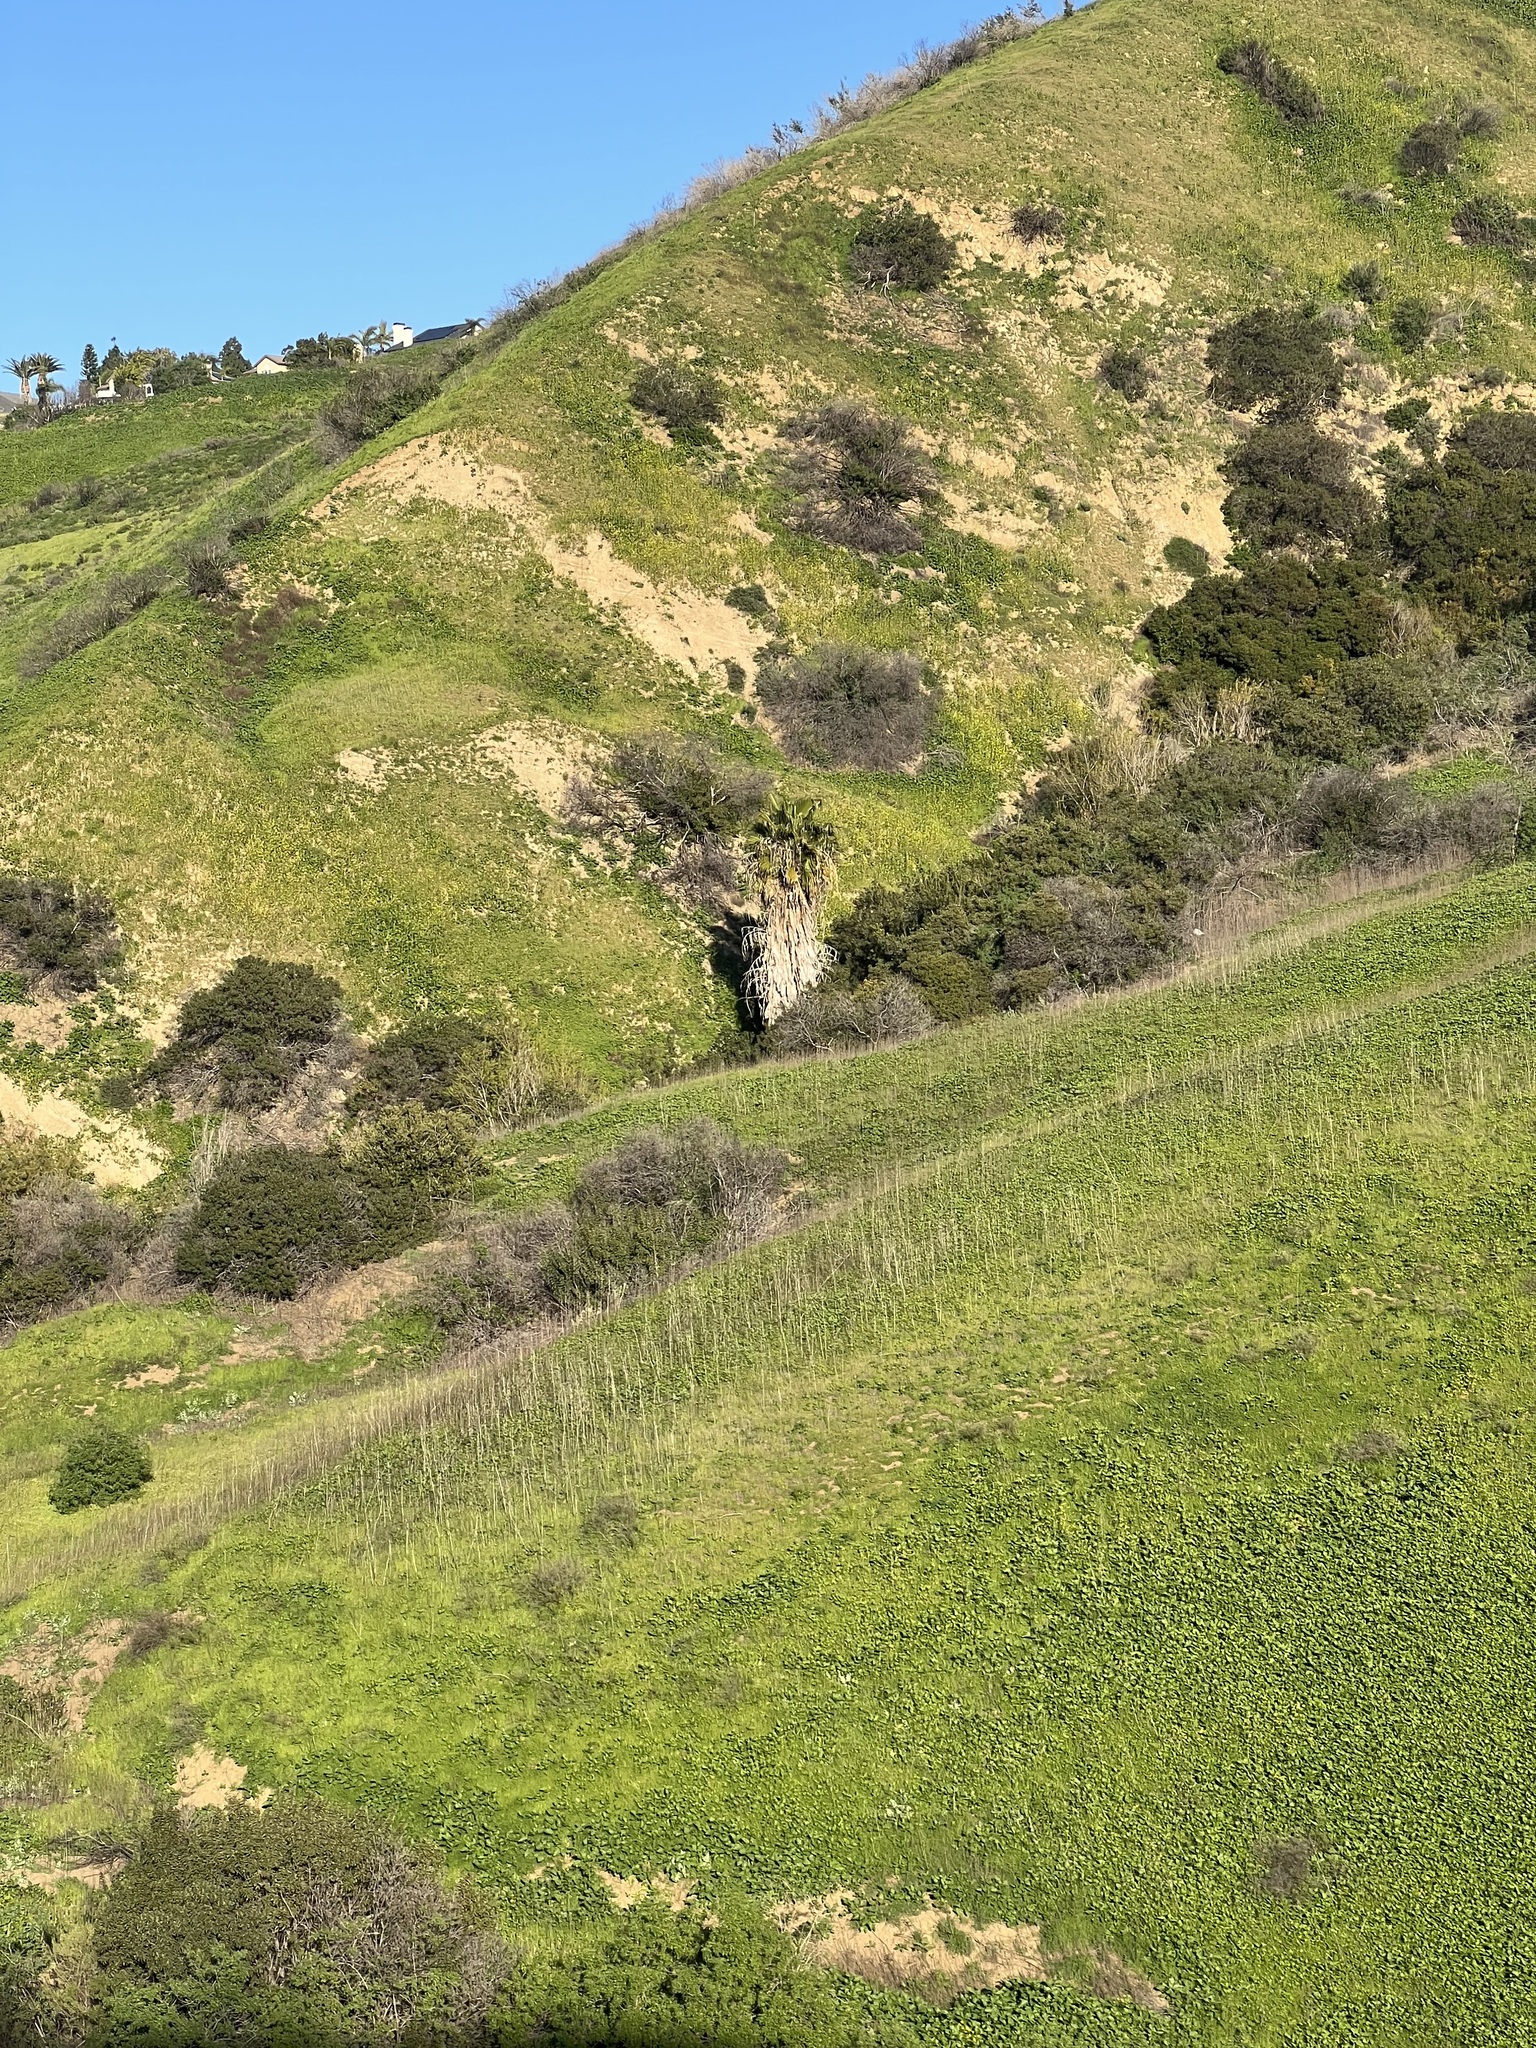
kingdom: Plantae
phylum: Tracheophyta
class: Liliopsida
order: Arecales
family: Arecaceae
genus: Washingtonia
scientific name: Washingtonia robusta
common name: Mexican fan palm
